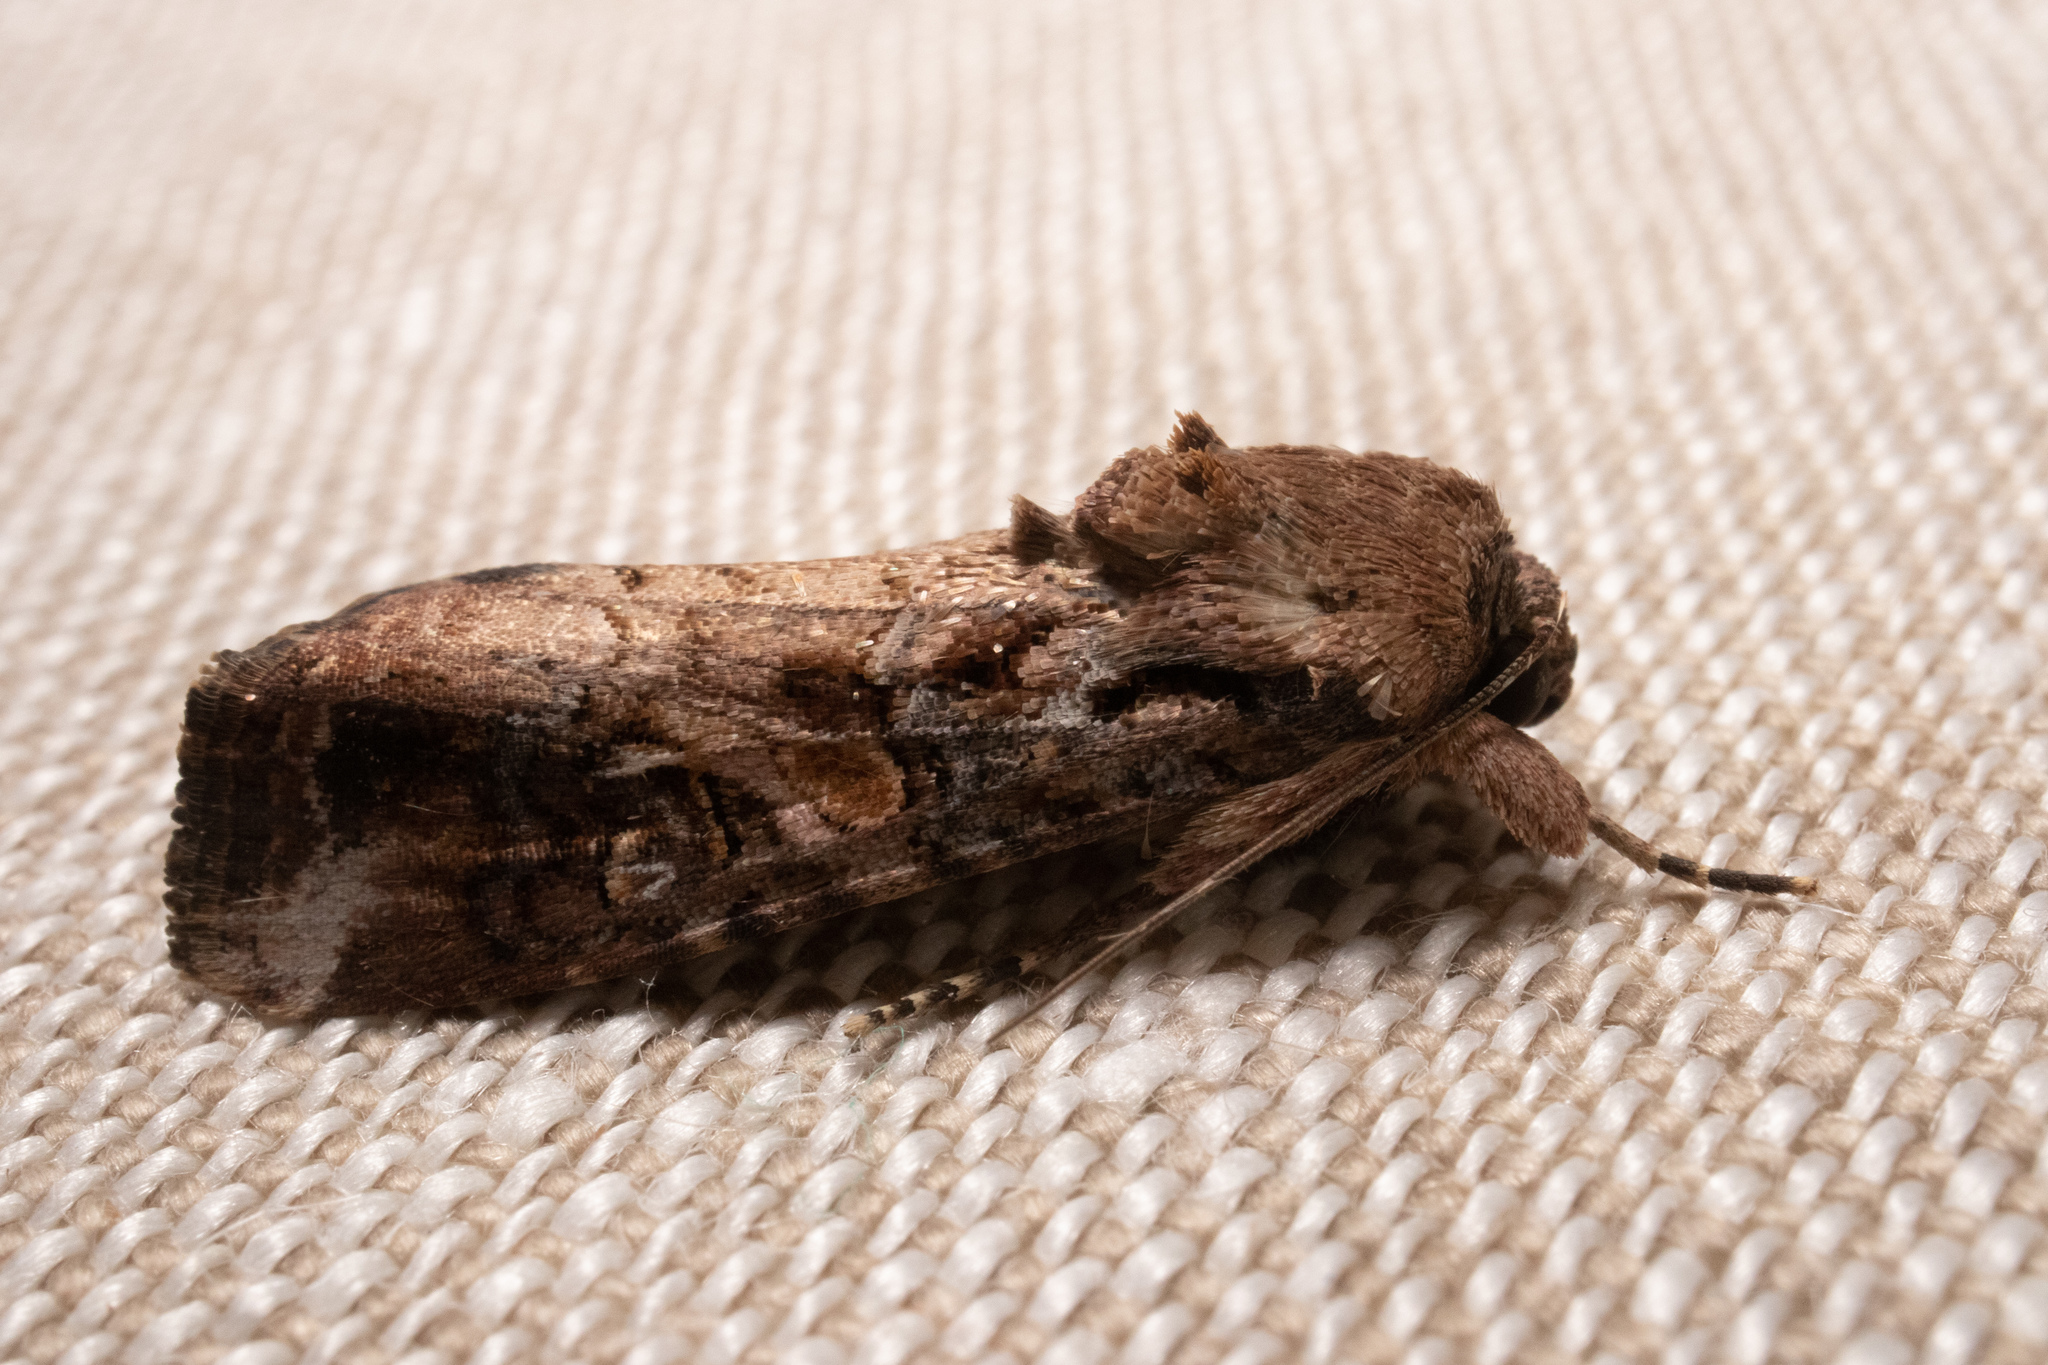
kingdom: Animalia
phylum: Arthropoda
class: Insecta
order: Lepidoptera
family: Noctuidae
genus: Spodoptera
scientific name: Spodoptera frugiperda
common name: Fall armyworm
